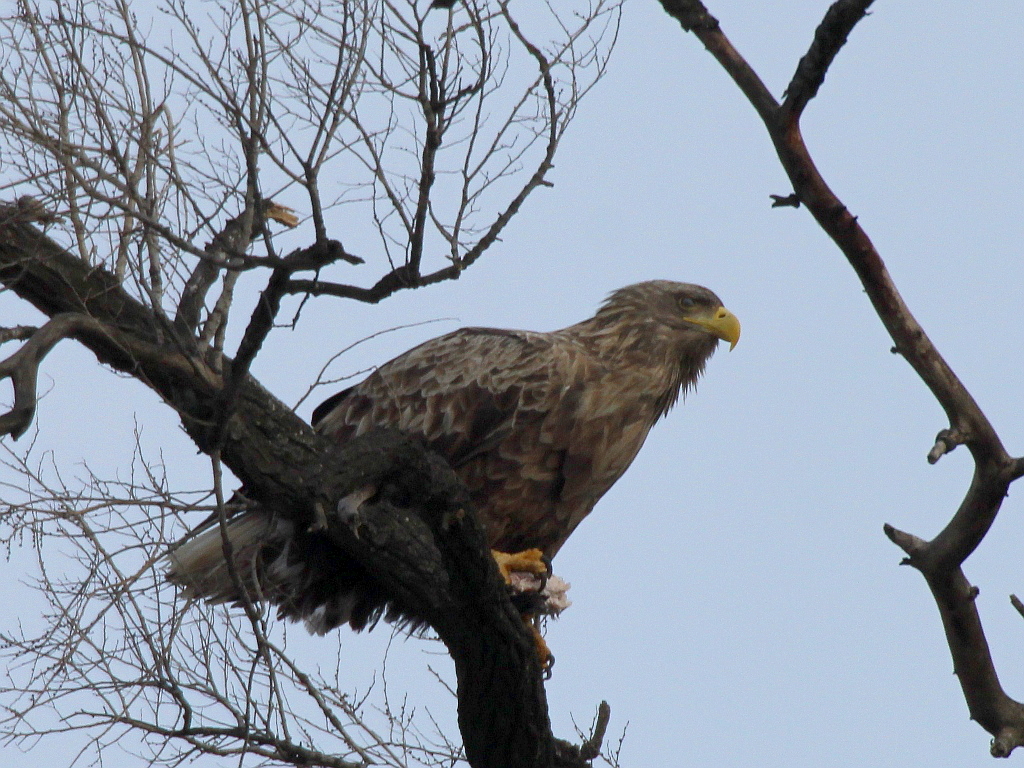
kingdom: Animalia
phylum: Chordata
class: Aves
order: Accipitriformes
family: Accipitridae
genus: Haliaeetus
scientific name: Haliaeetus albicilla
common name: White-tailed eagle
